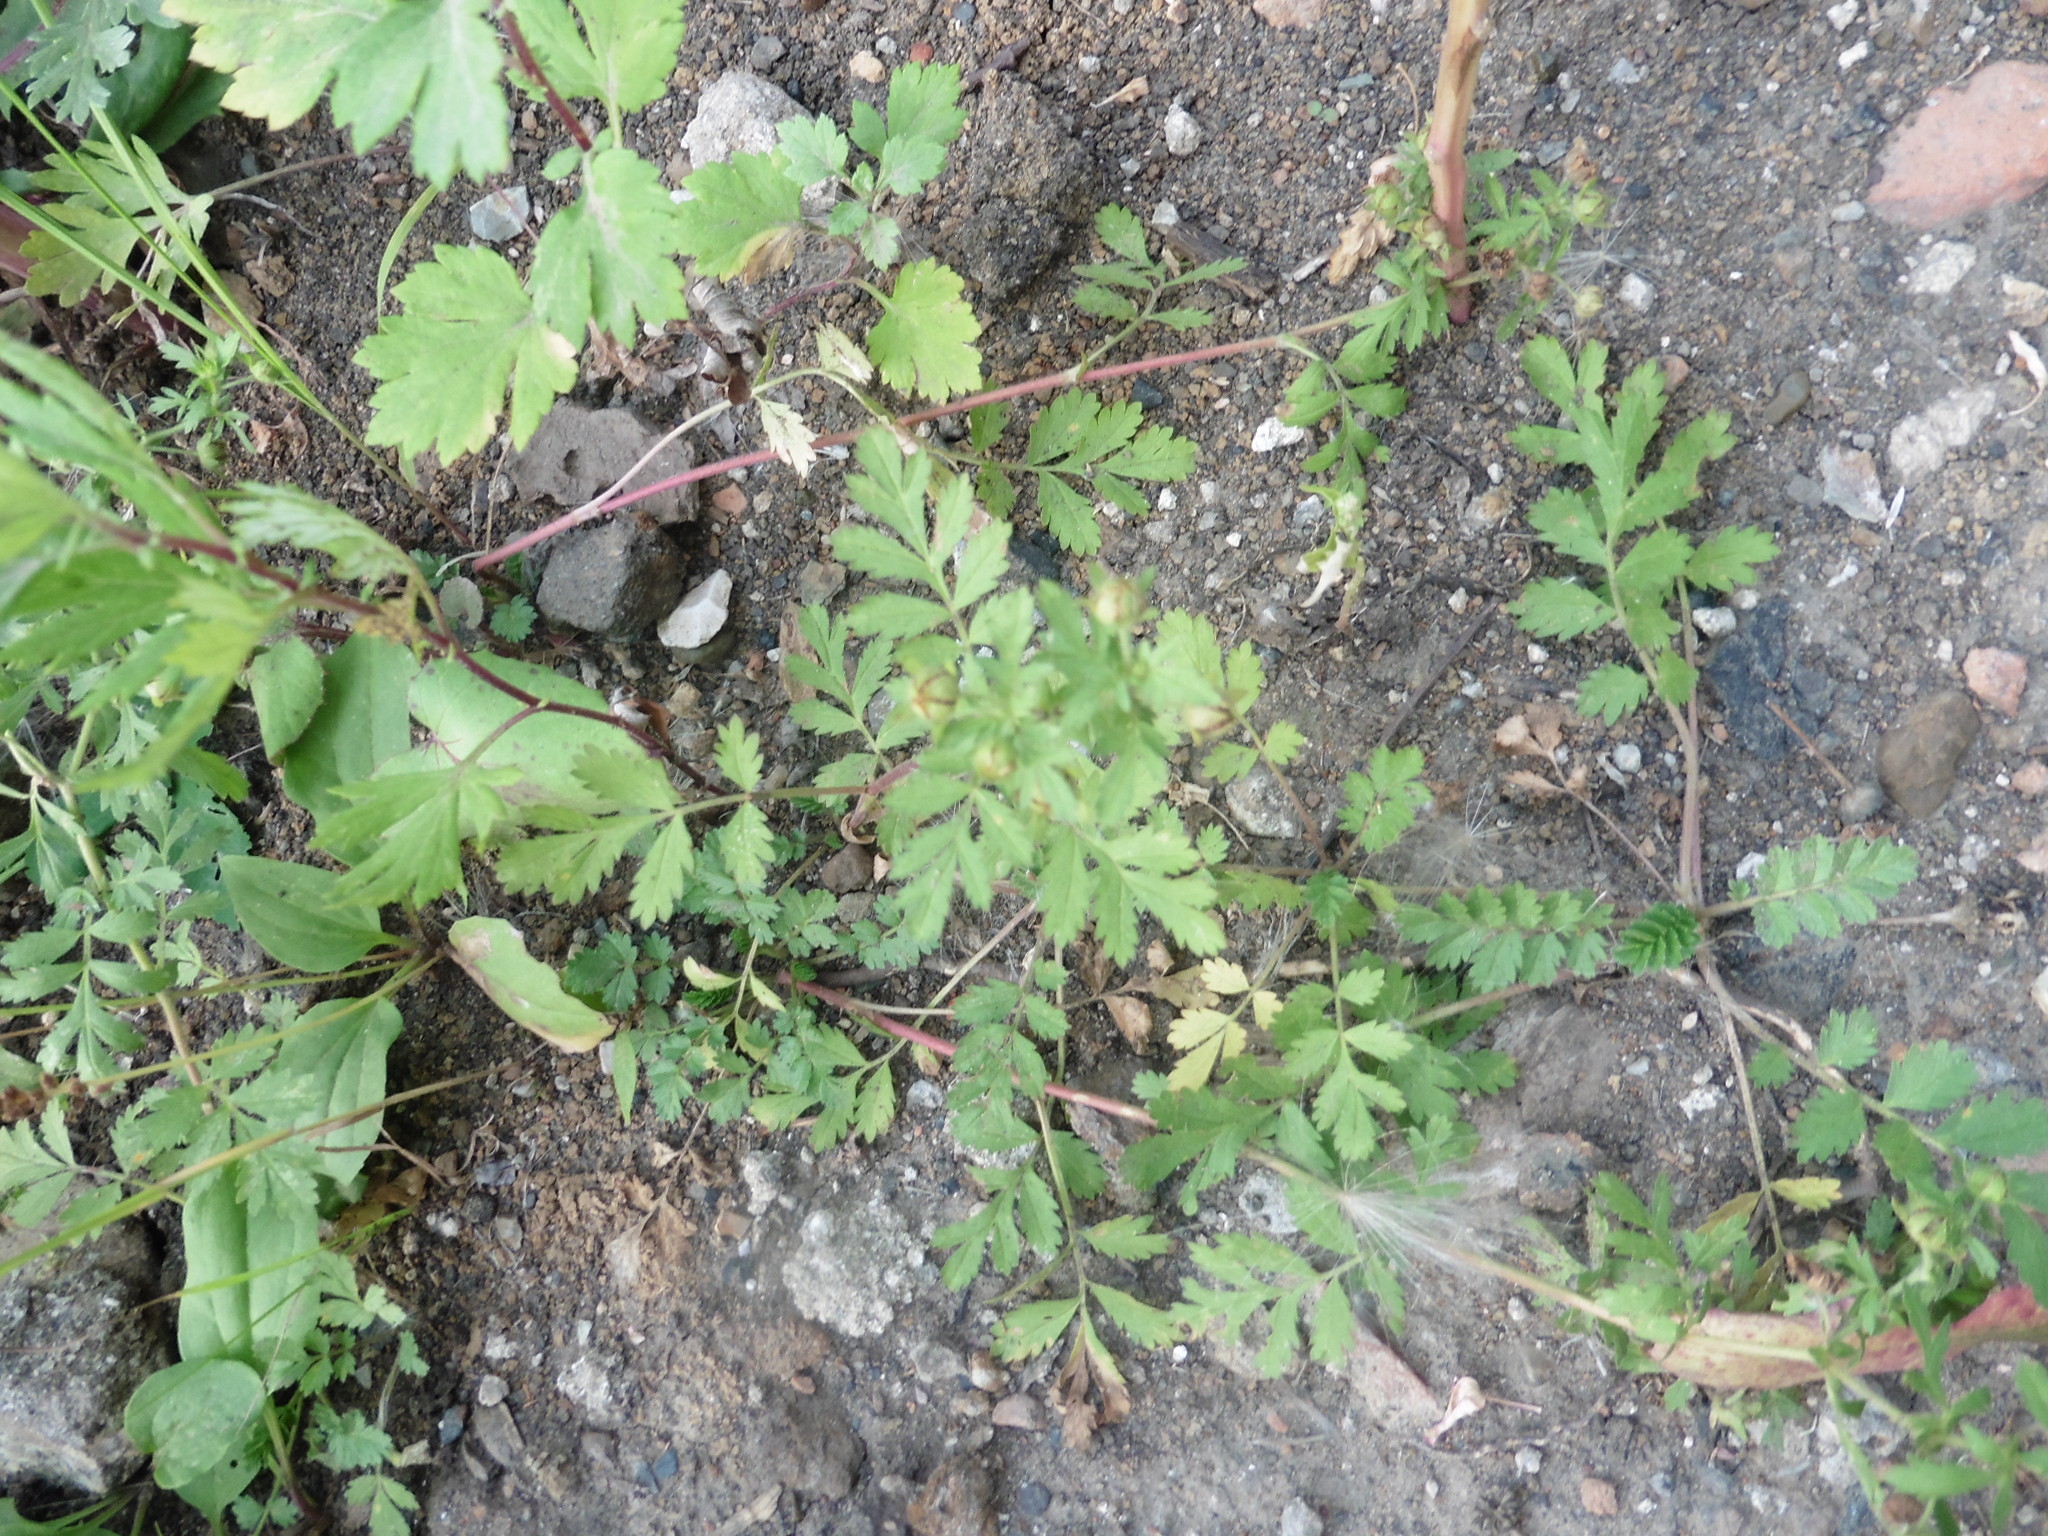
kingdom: Plantae
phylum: Tracheophyta
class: Magnoliopsida
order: Rosales
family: Rosaceae
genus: Potentilla
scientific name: Potentilla supina
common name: Prostrate cinquefoil
